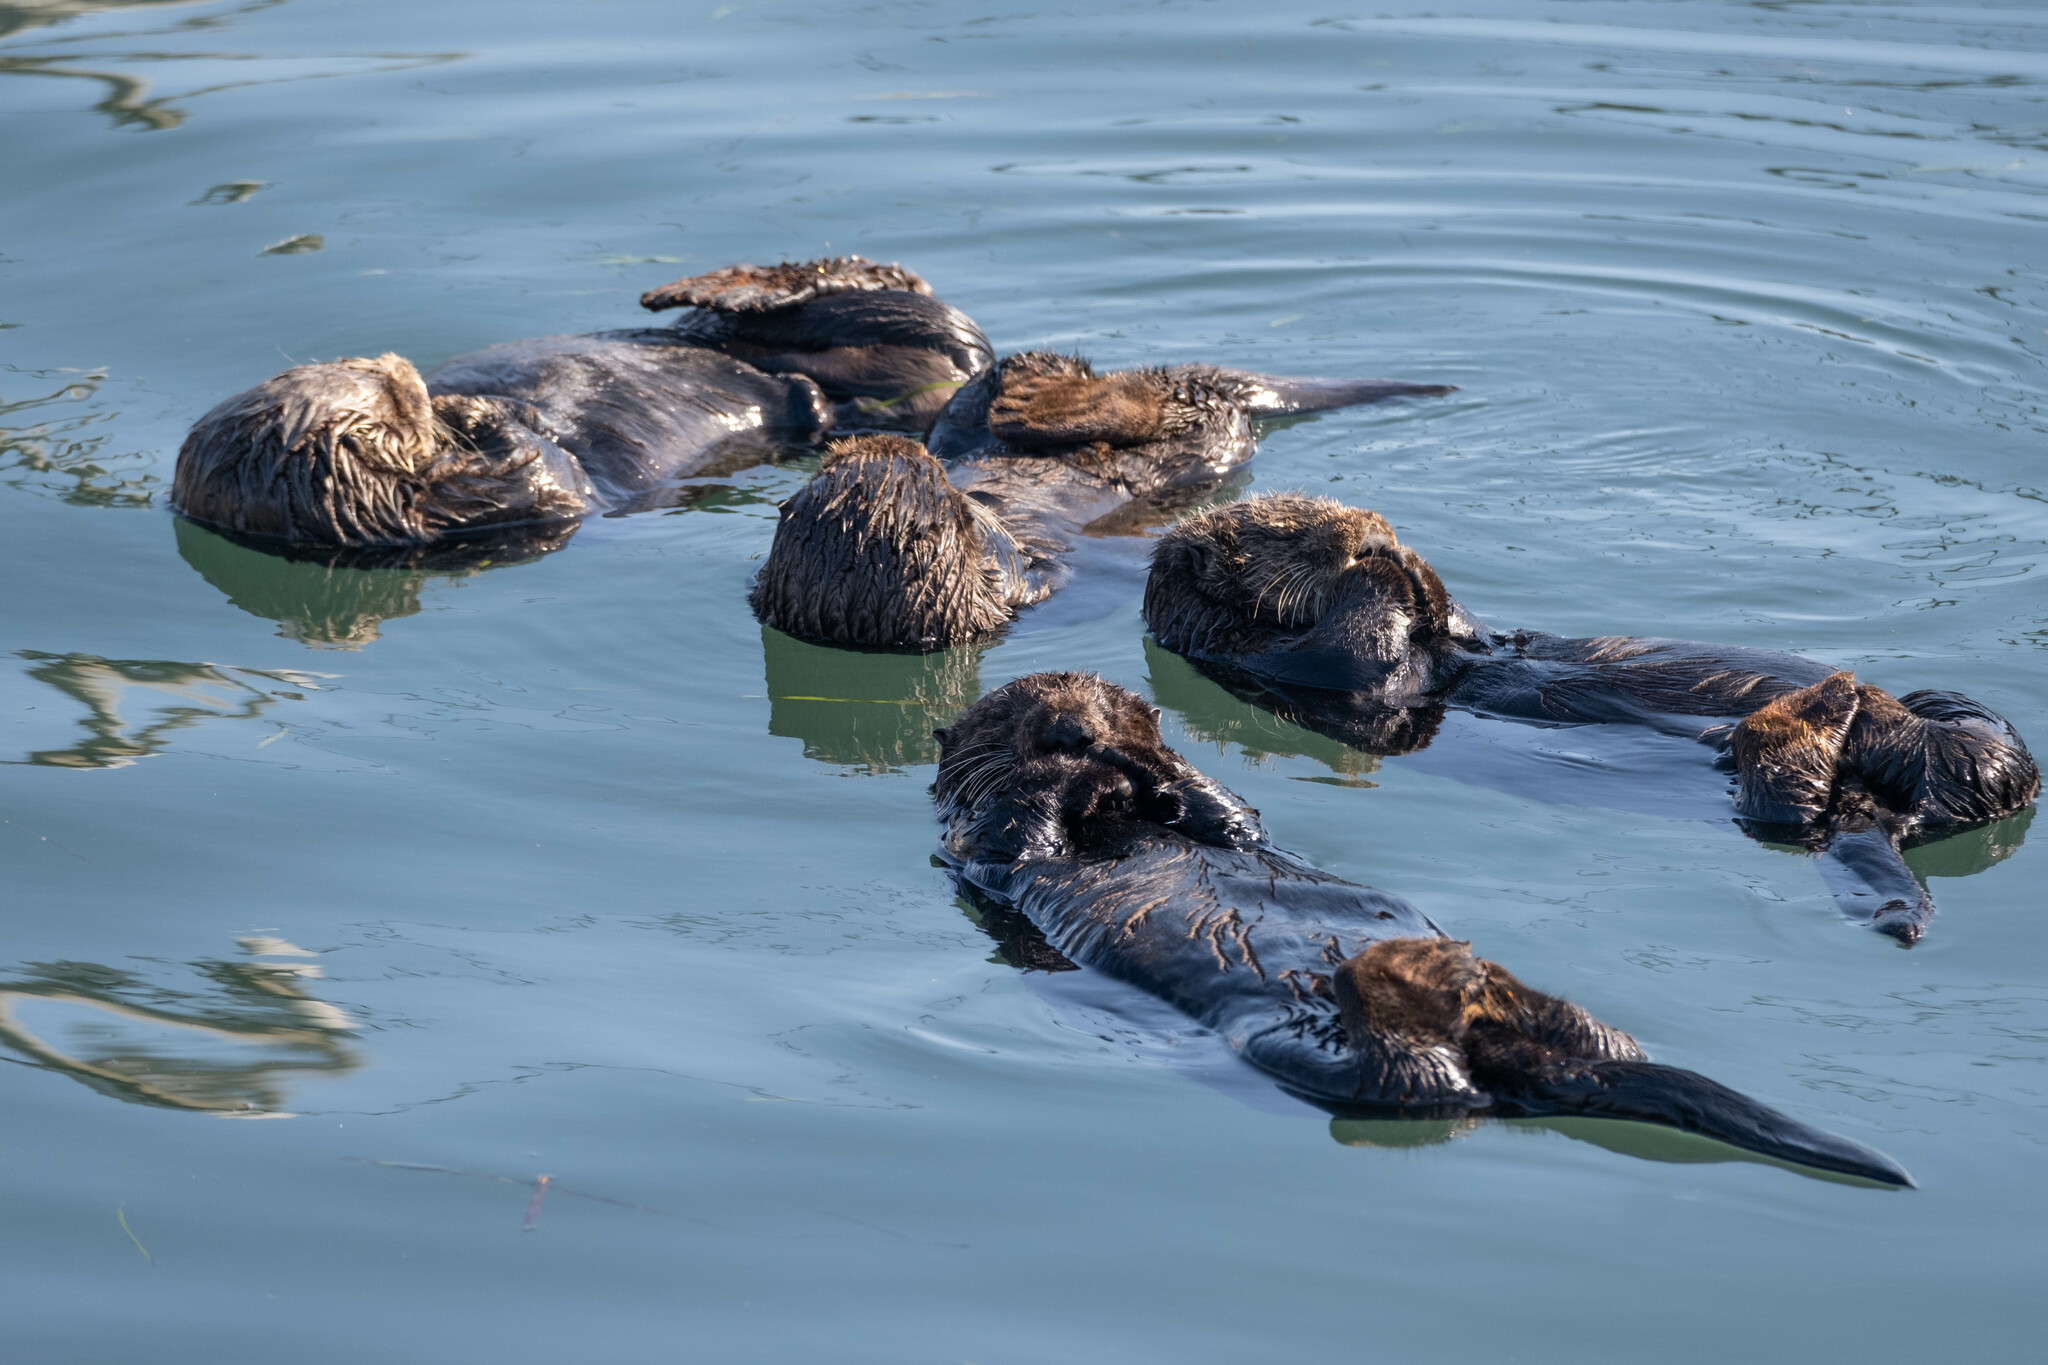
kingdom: Animalia
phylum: Chordata
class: Mammalia
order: Carnivora
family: Mustelidae
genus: Enhydra
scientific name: Enhydra lutris
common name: Sea otter
